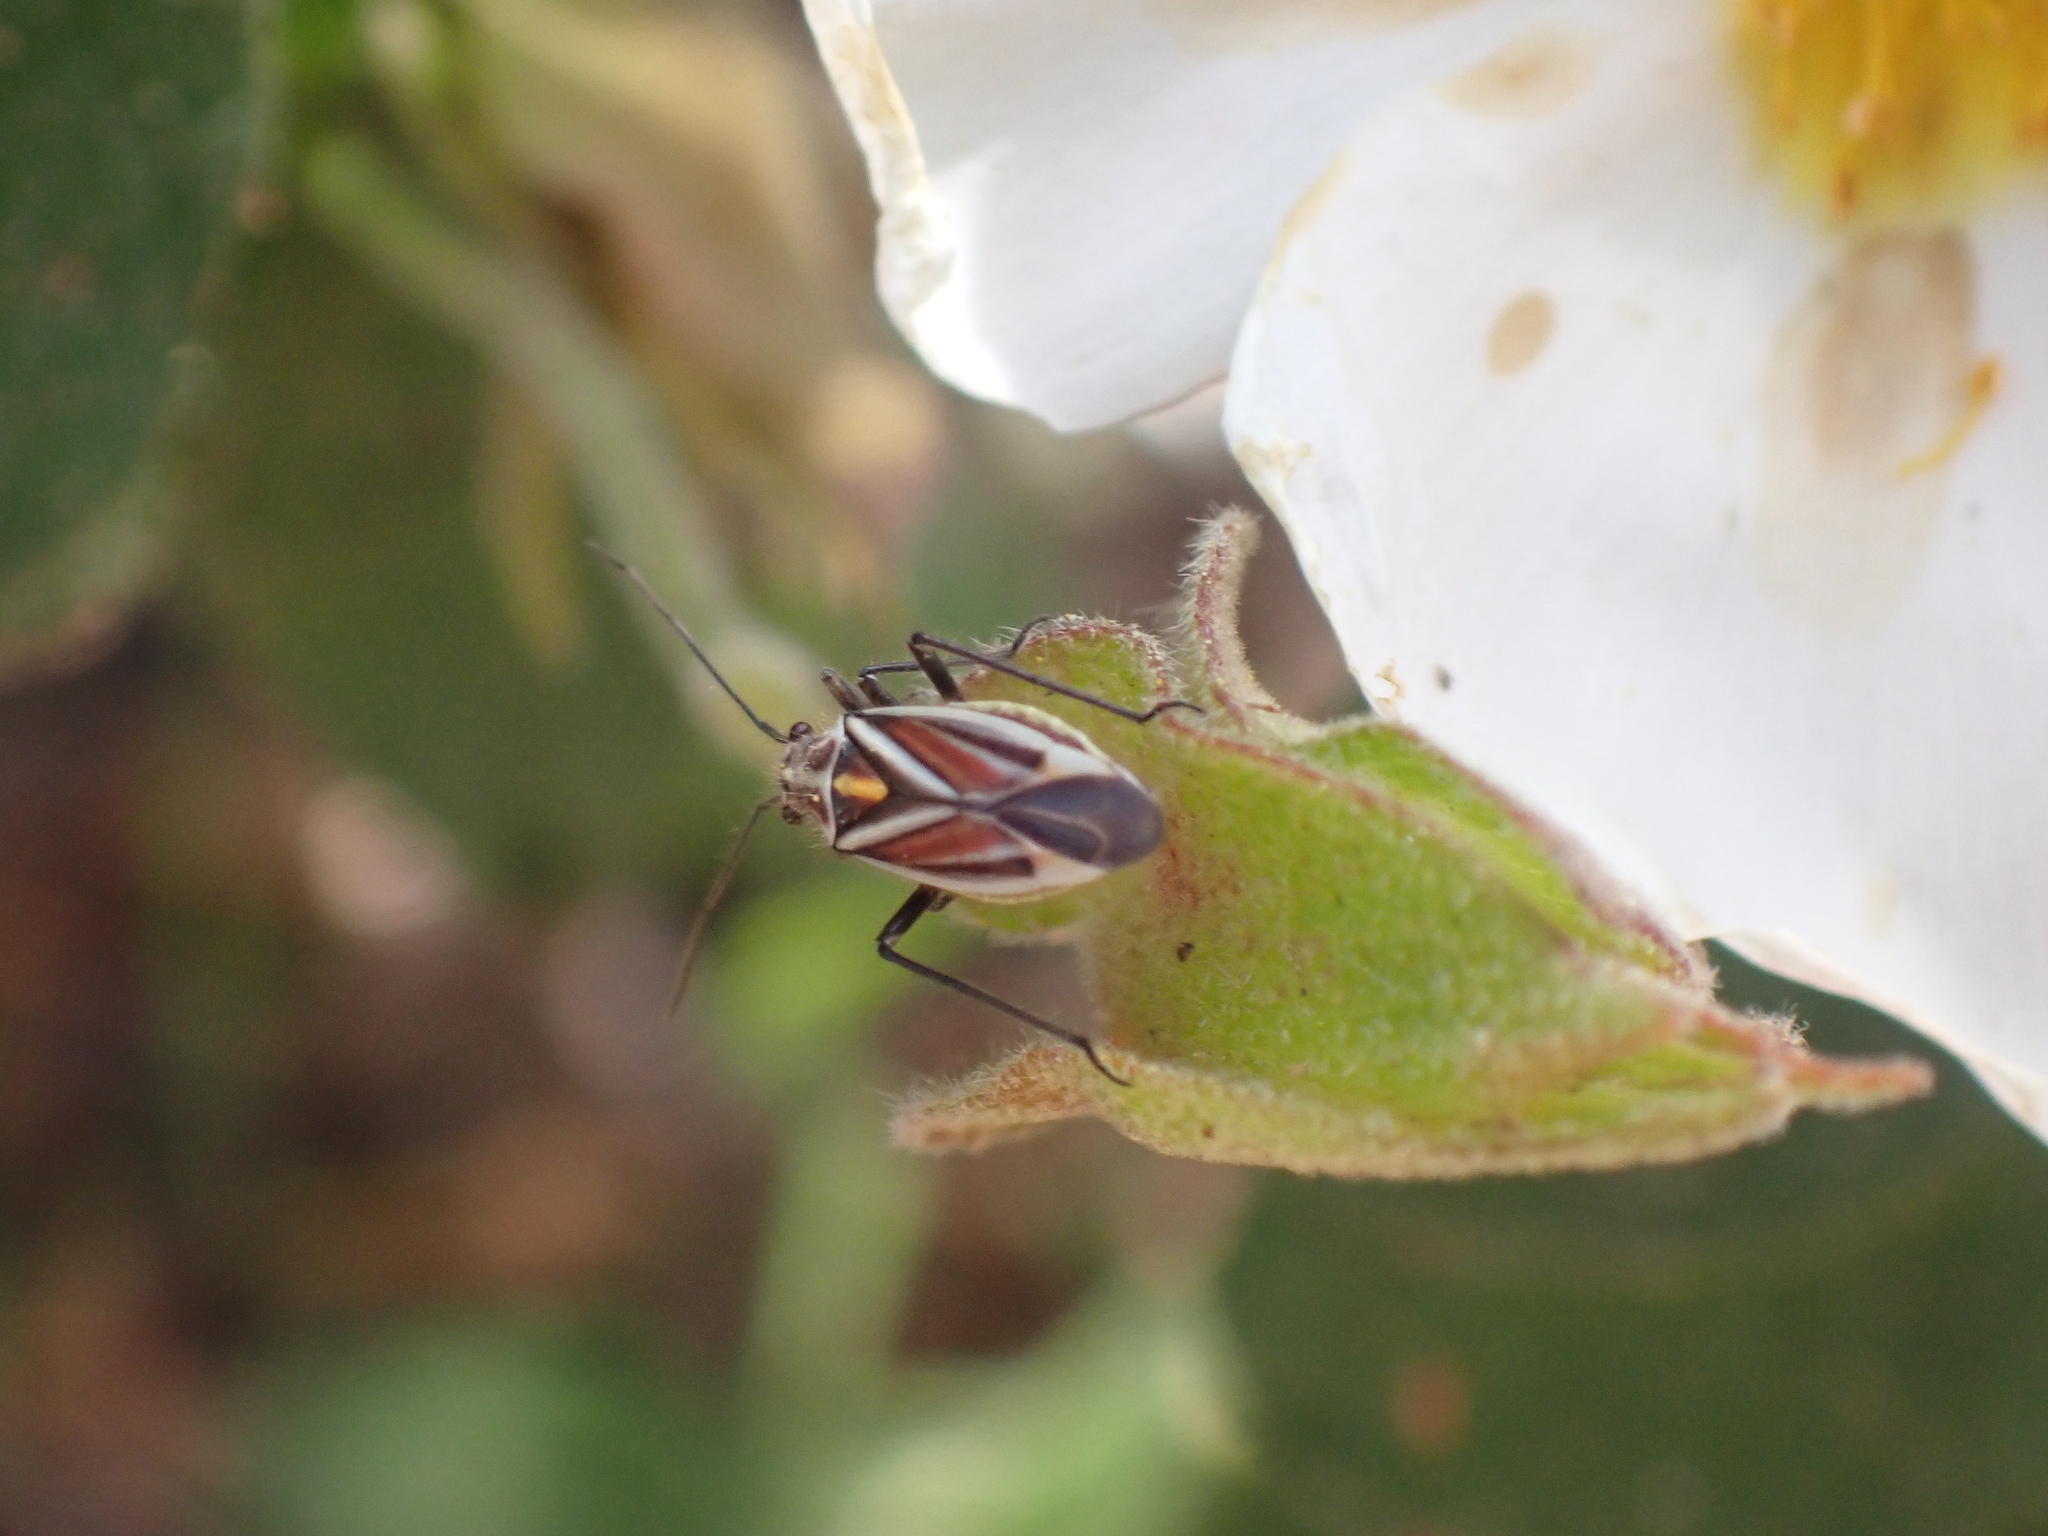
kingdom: Animalia
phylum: Arthropoda
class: Insecta
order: Hemiptera
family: Miridae
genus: Horistus
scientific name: Horistus orientalis
